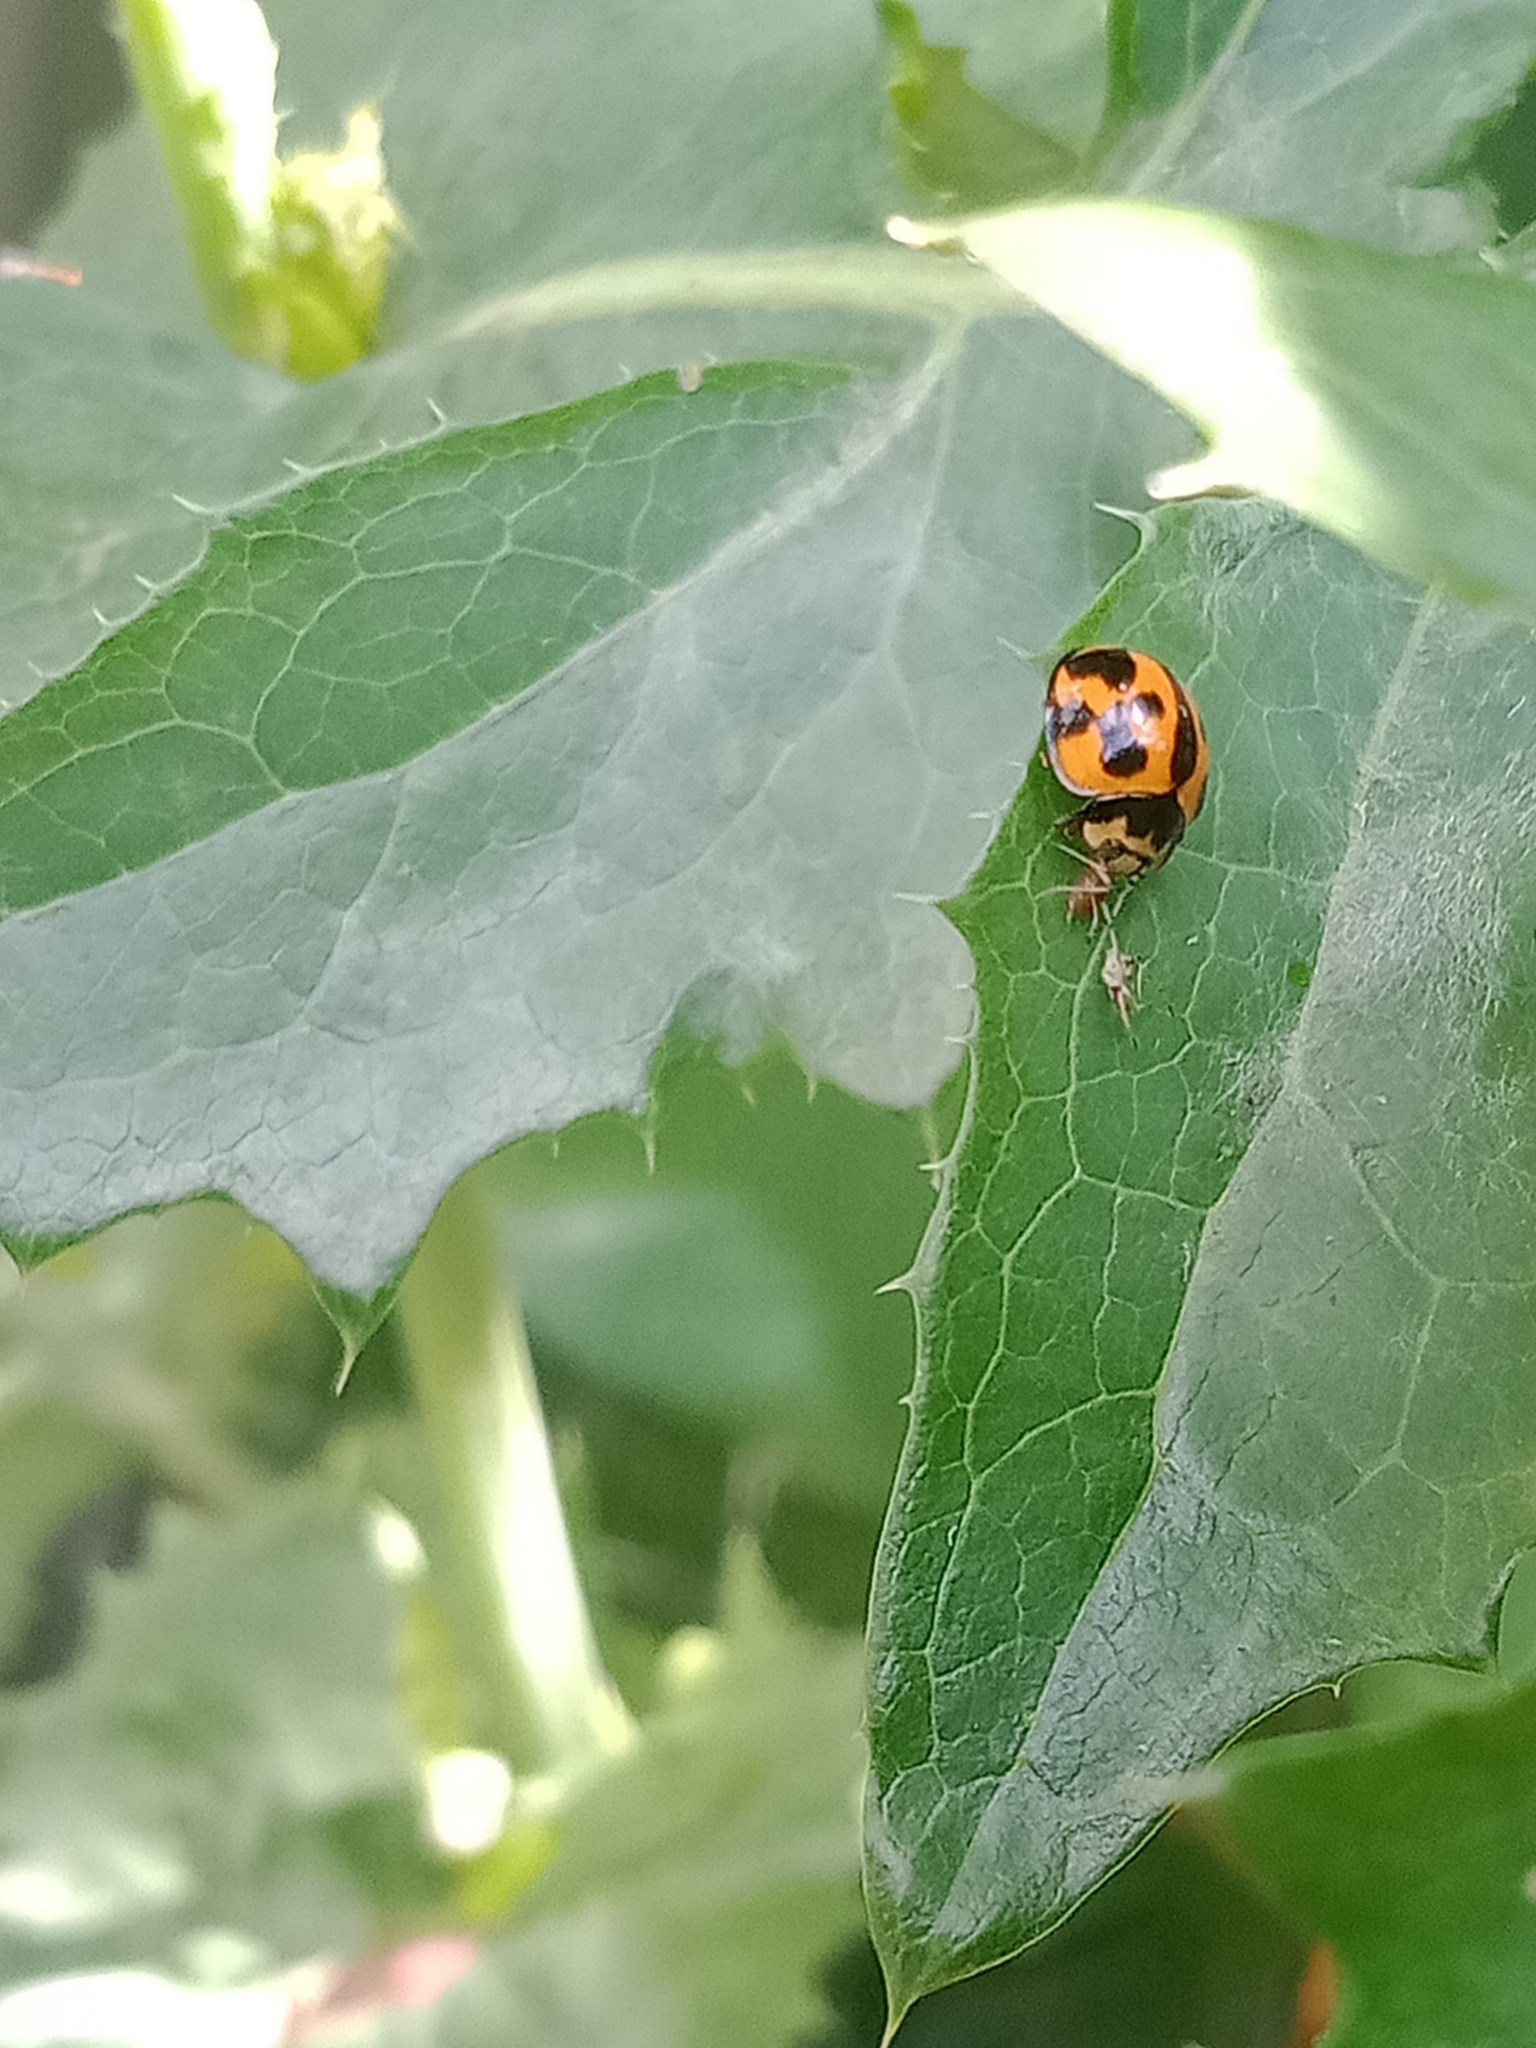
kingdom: Animalia
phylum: Arthropoda
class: Insecta
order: Coleoptera
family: Coccinellidae
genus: Coelophora
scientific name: Coelophora inaequalis
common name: Common australian lady beetle
